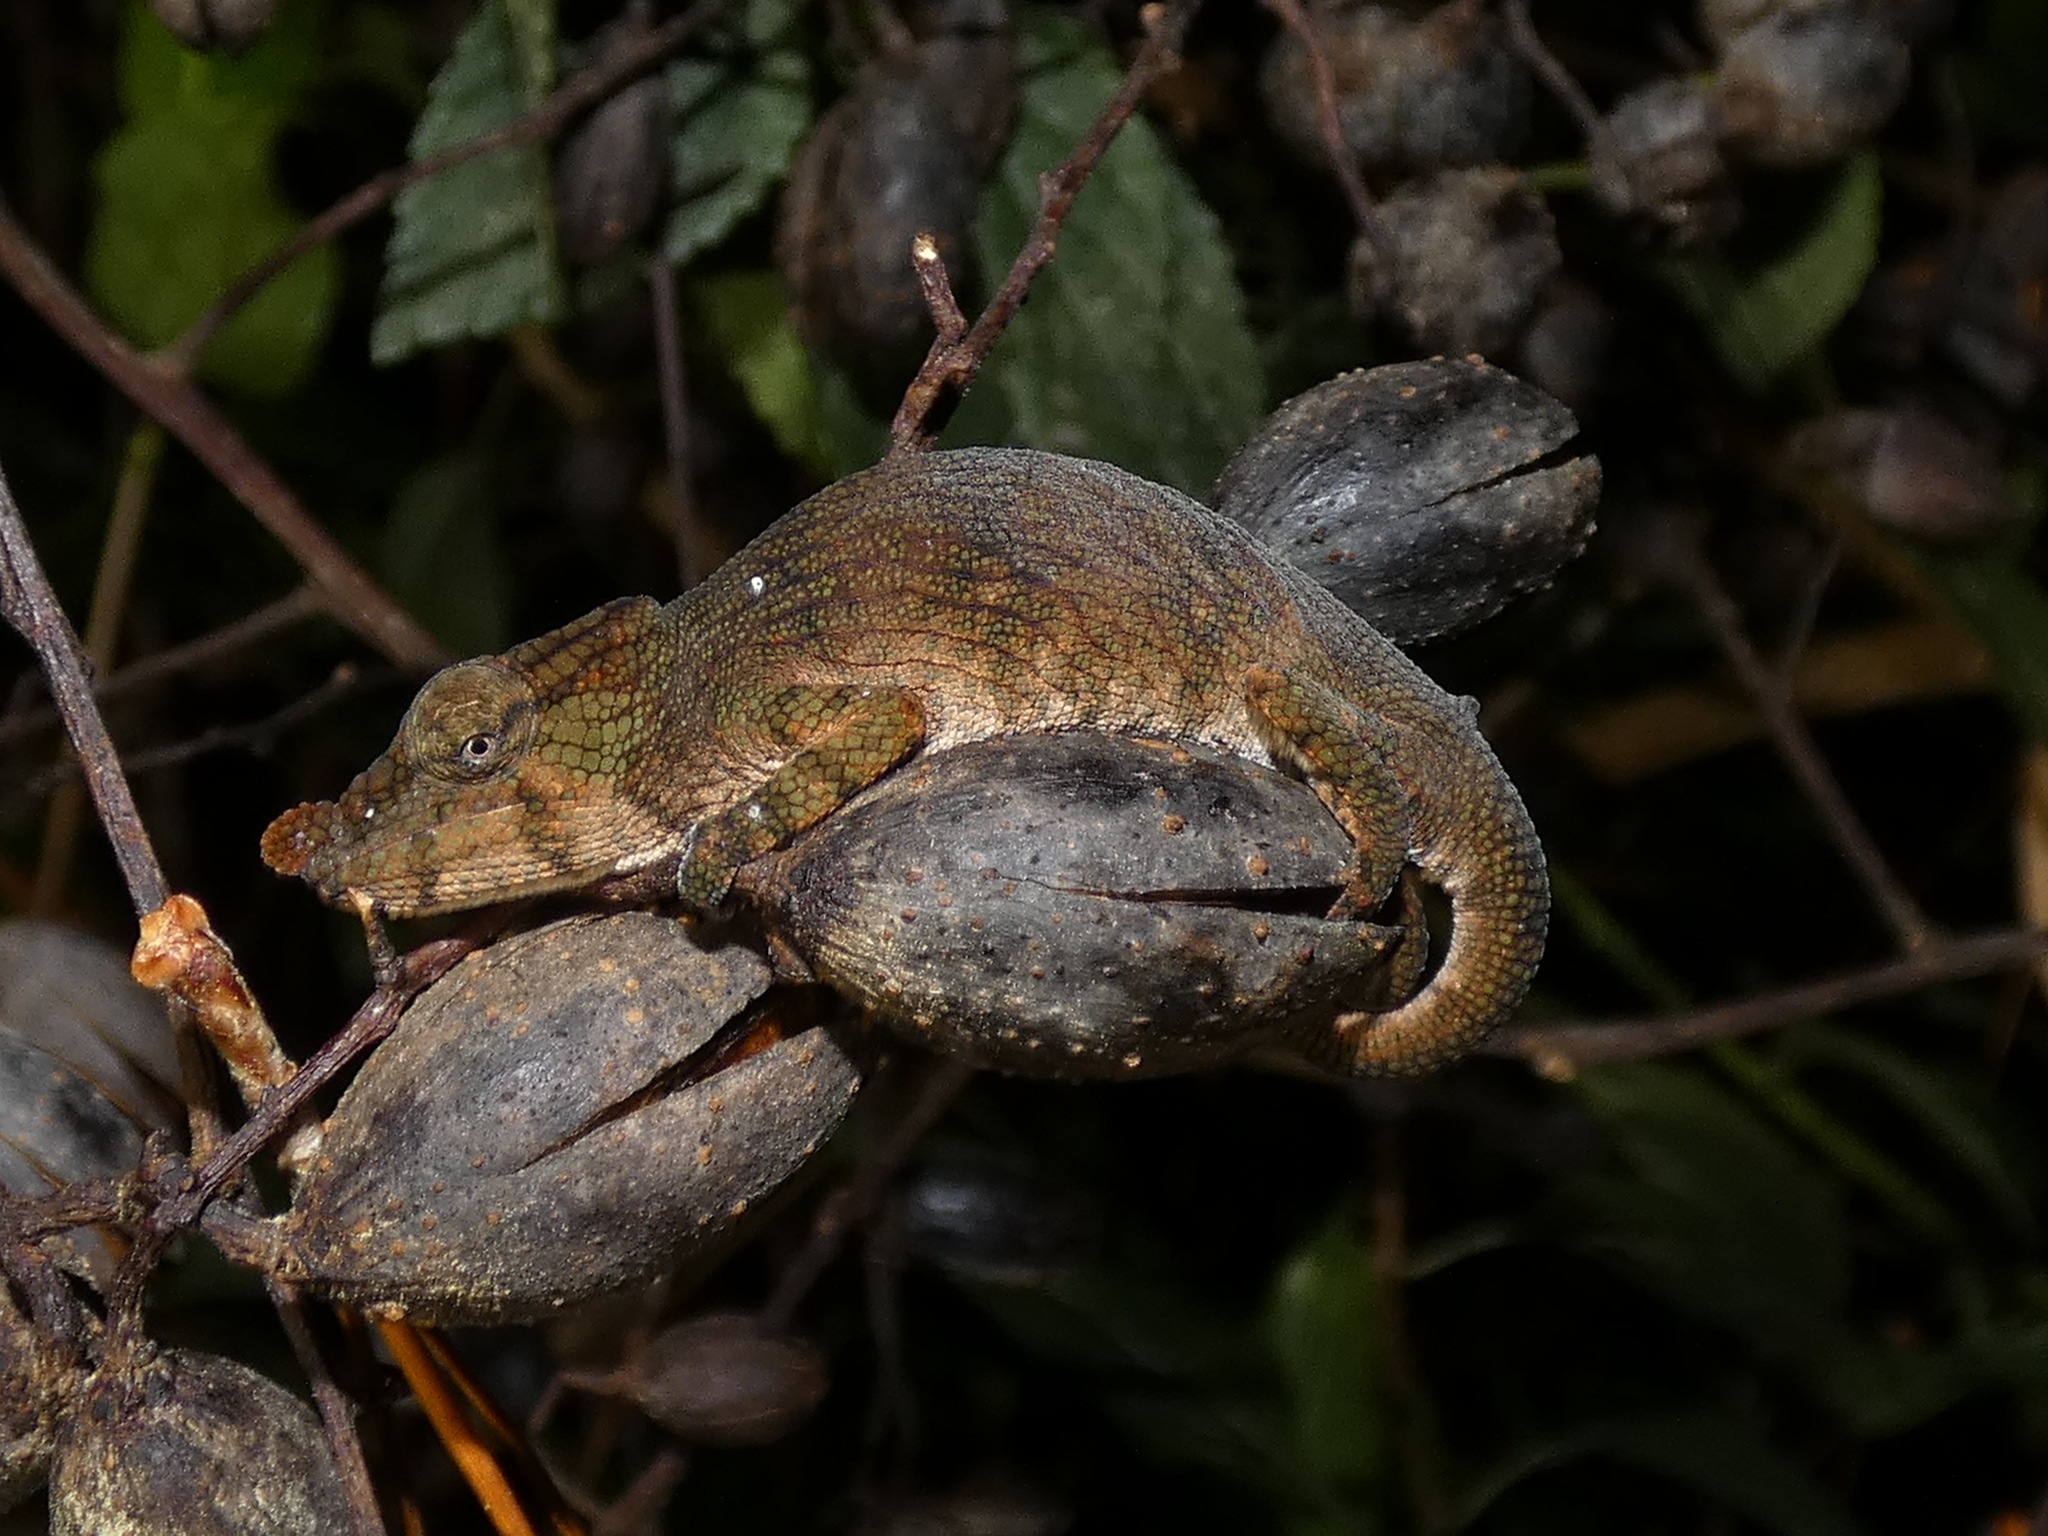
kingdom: Animalia
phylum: Chordata
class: Squamata
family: Chamaeleonidae
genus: Calumma
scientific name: Calumma emelinae
